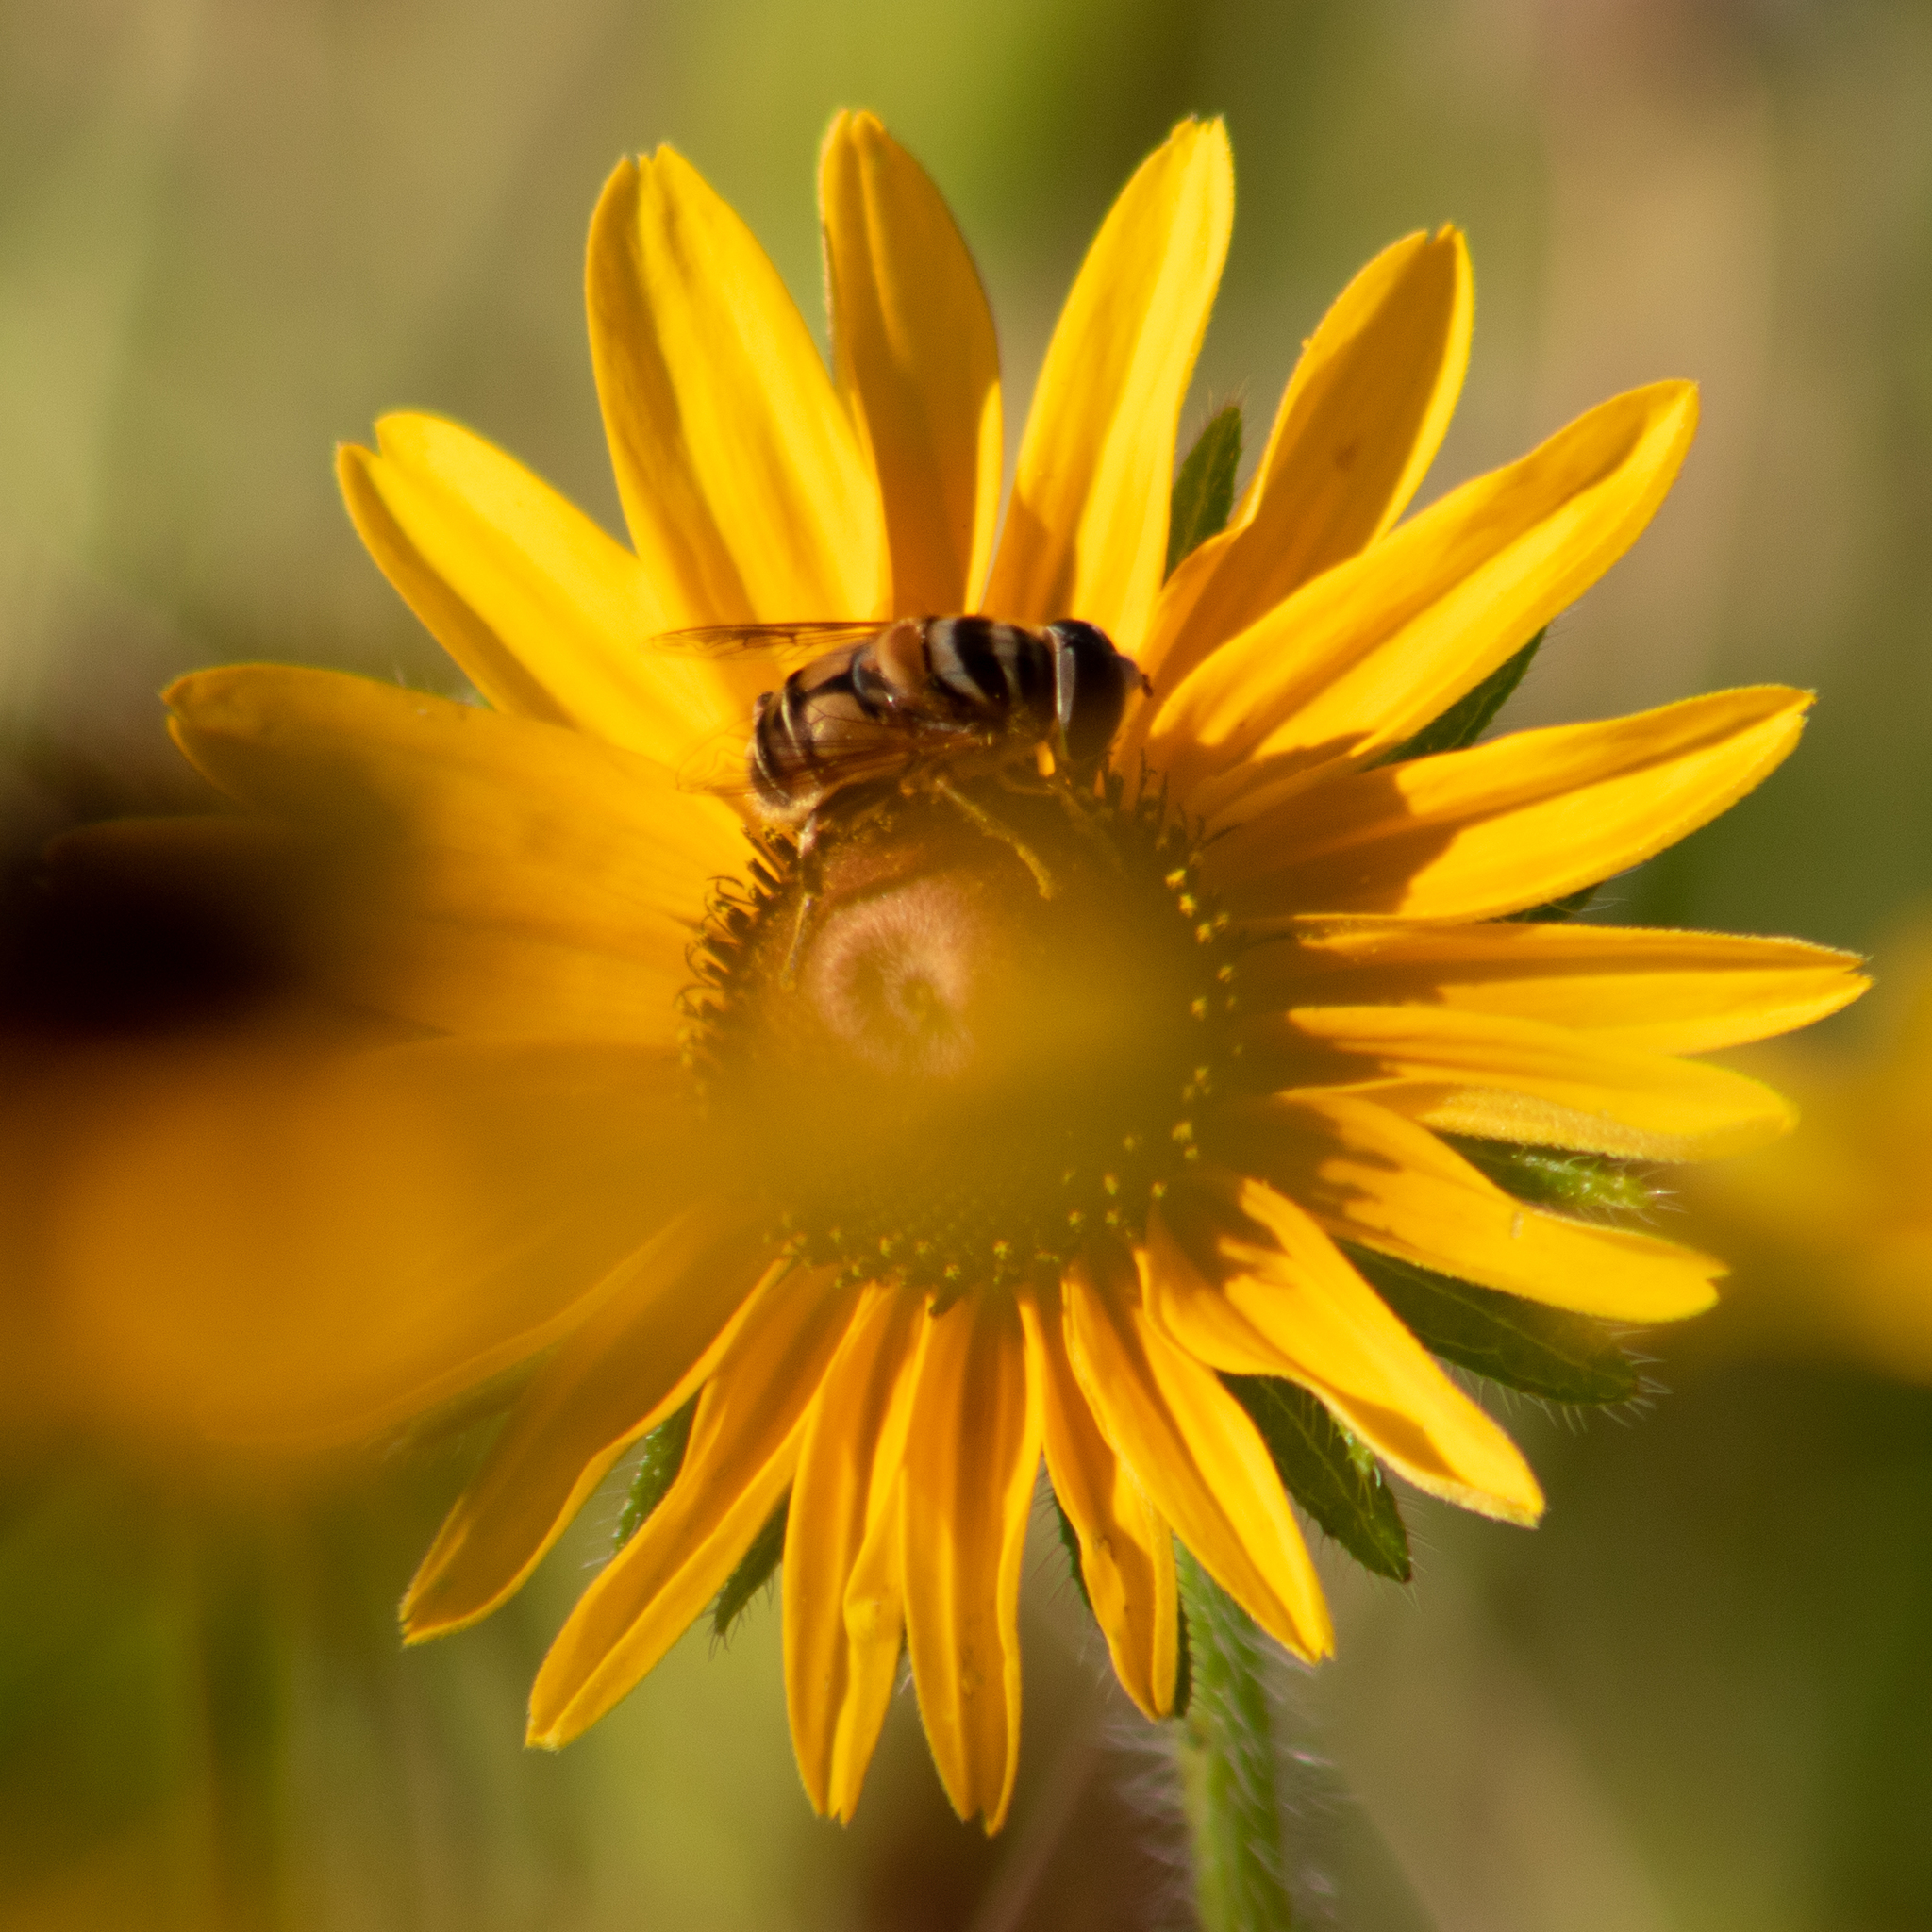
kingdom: Animalia
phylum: Arthropoda
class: Insecta
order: Diptera
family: Syrphidae
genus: Palpada
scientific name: Palpada vinetorum
